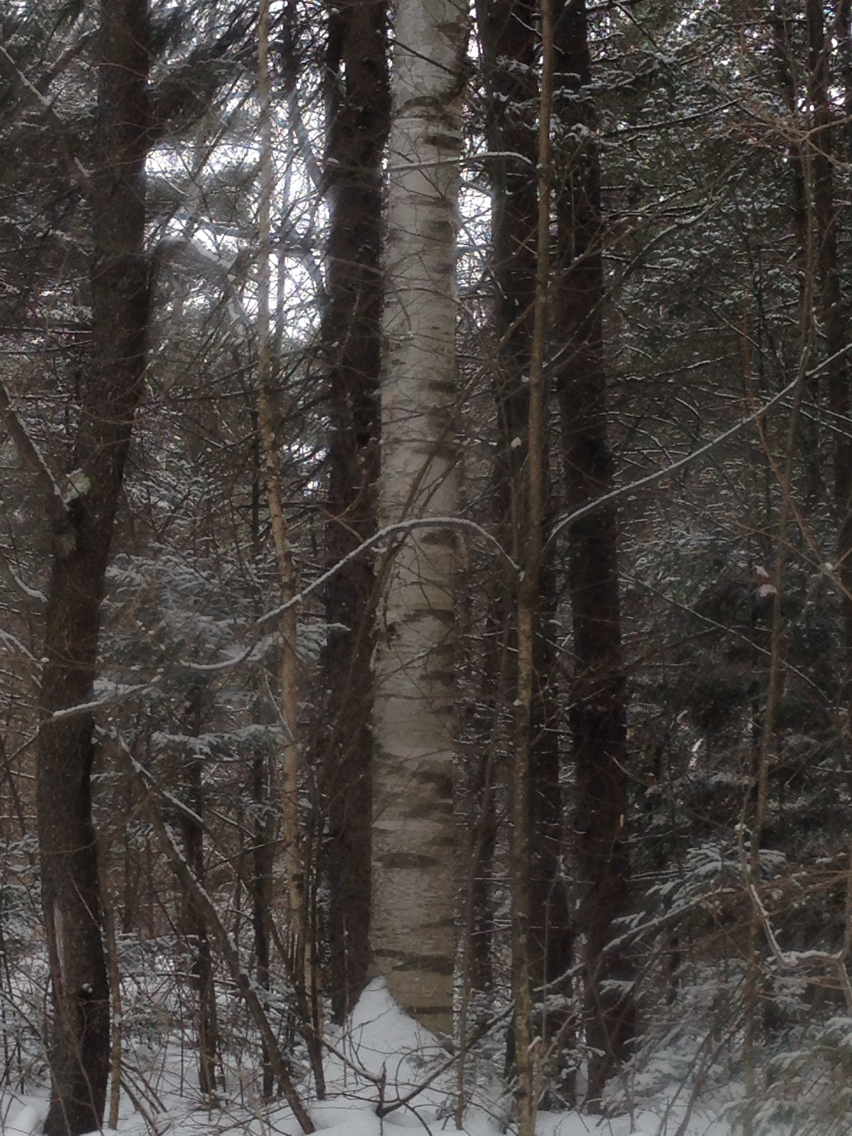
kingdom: Plantae
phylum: Tracheophyta
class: Magnoliopsida
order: Fagales
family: Betulaceae
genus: Betula
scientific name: Betula papyrifera
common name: Paper birch
